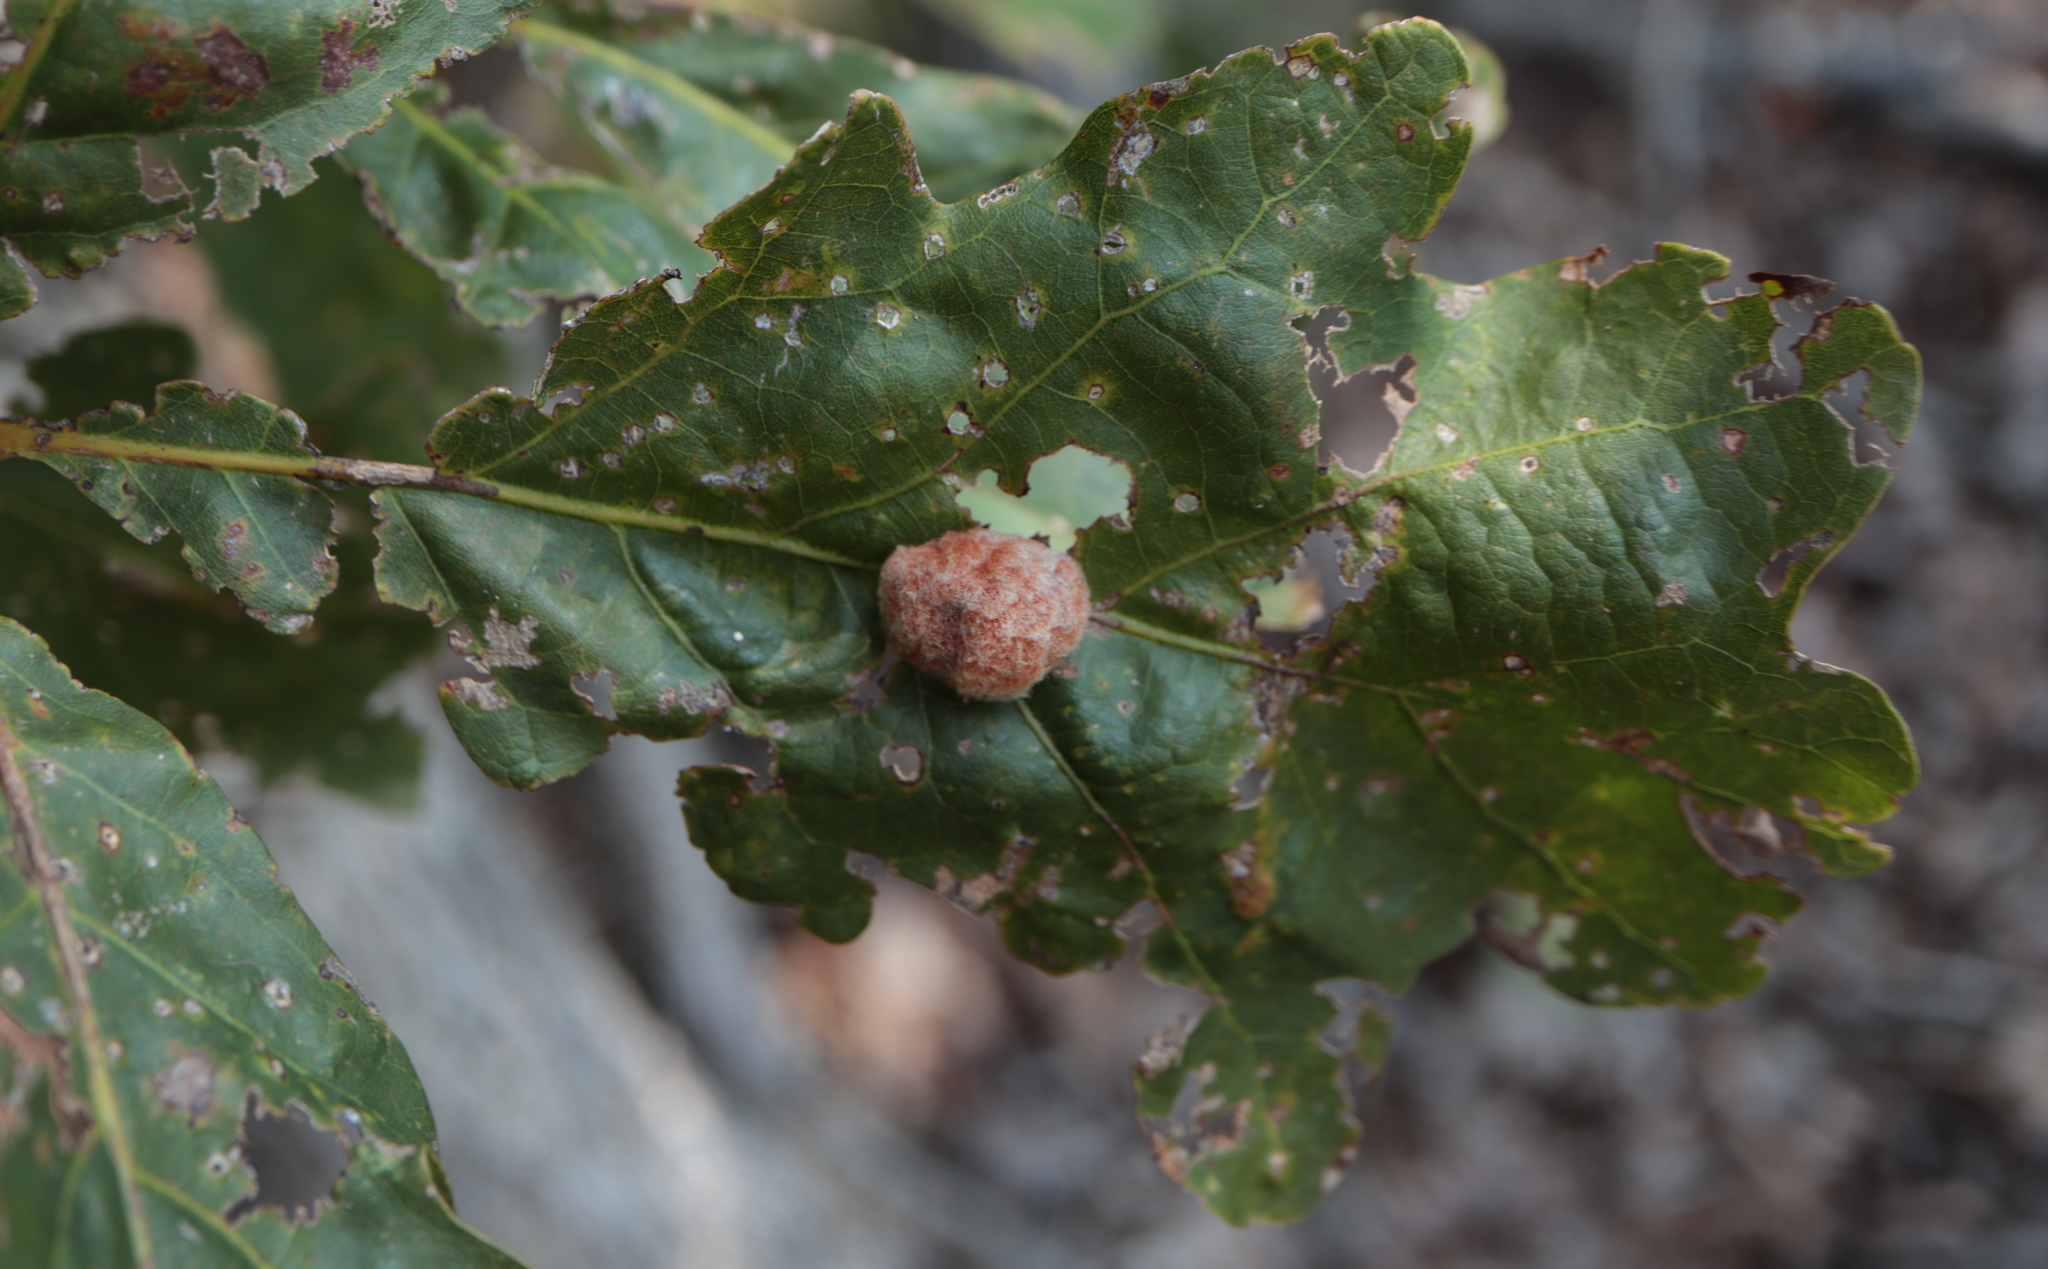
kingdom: Animalia
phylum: Arthropoda
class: Insecta
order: Hymenoptera
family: Cynipidae
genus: Andricus
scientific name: Andricus quercusflocci
